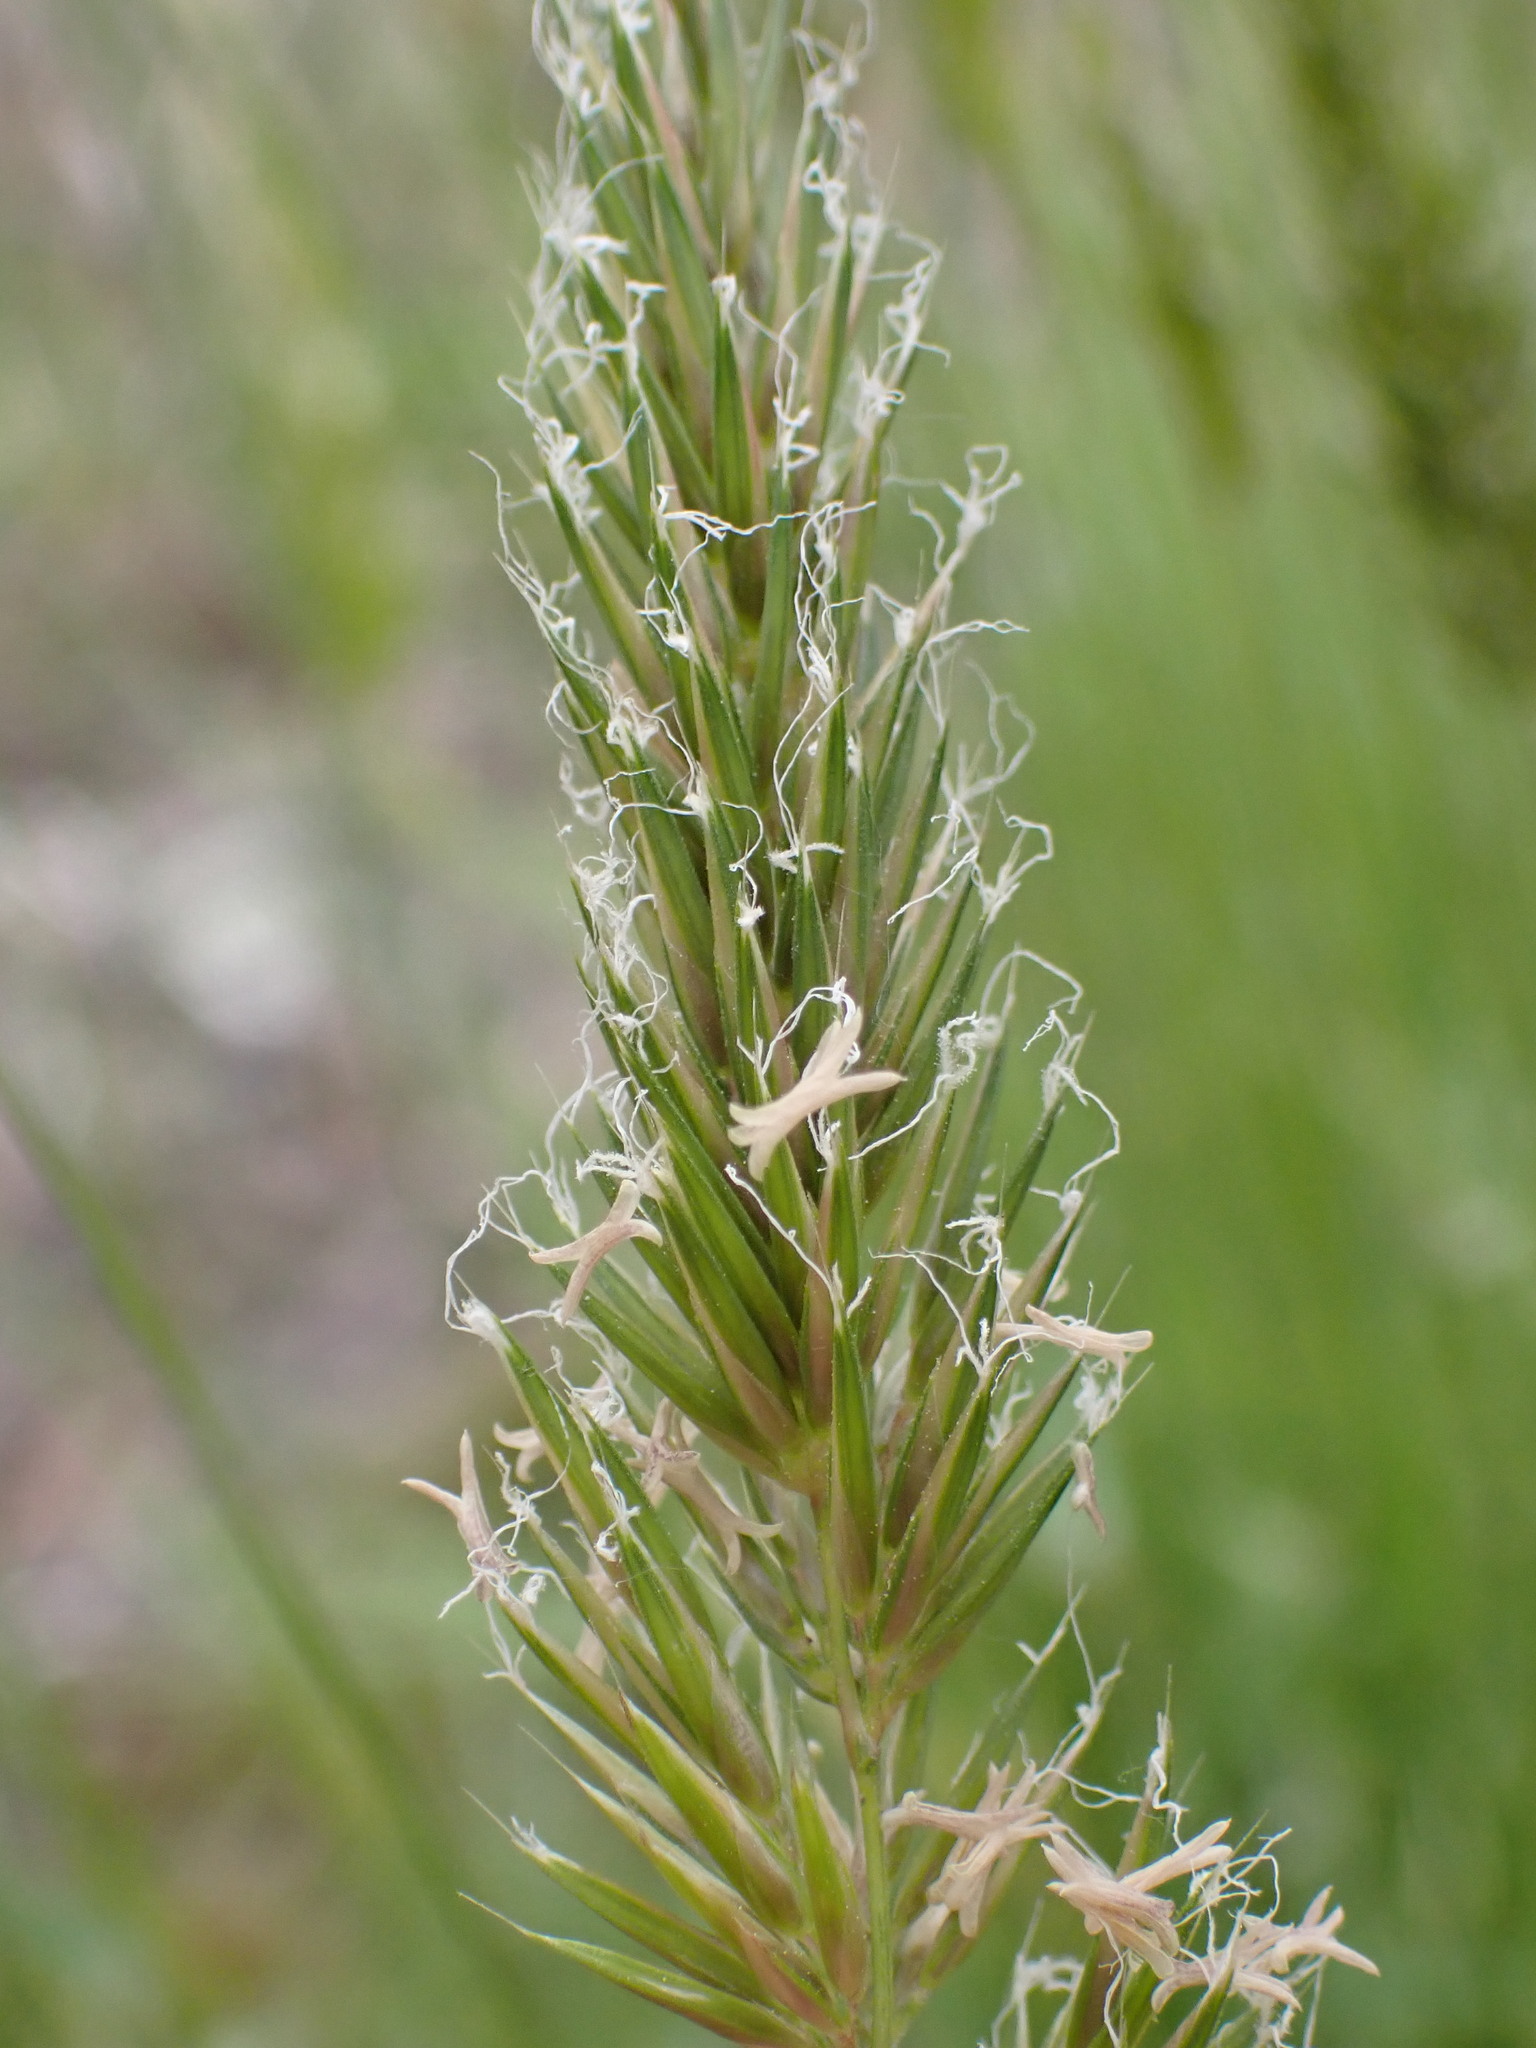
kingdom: Plantae
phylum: Tracheophyta
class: Liliopsida
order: Poales
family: Poaceae
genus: Anthoxanthum
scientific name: Anthoxanthum odoratum
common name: Sweet vernalgrass
